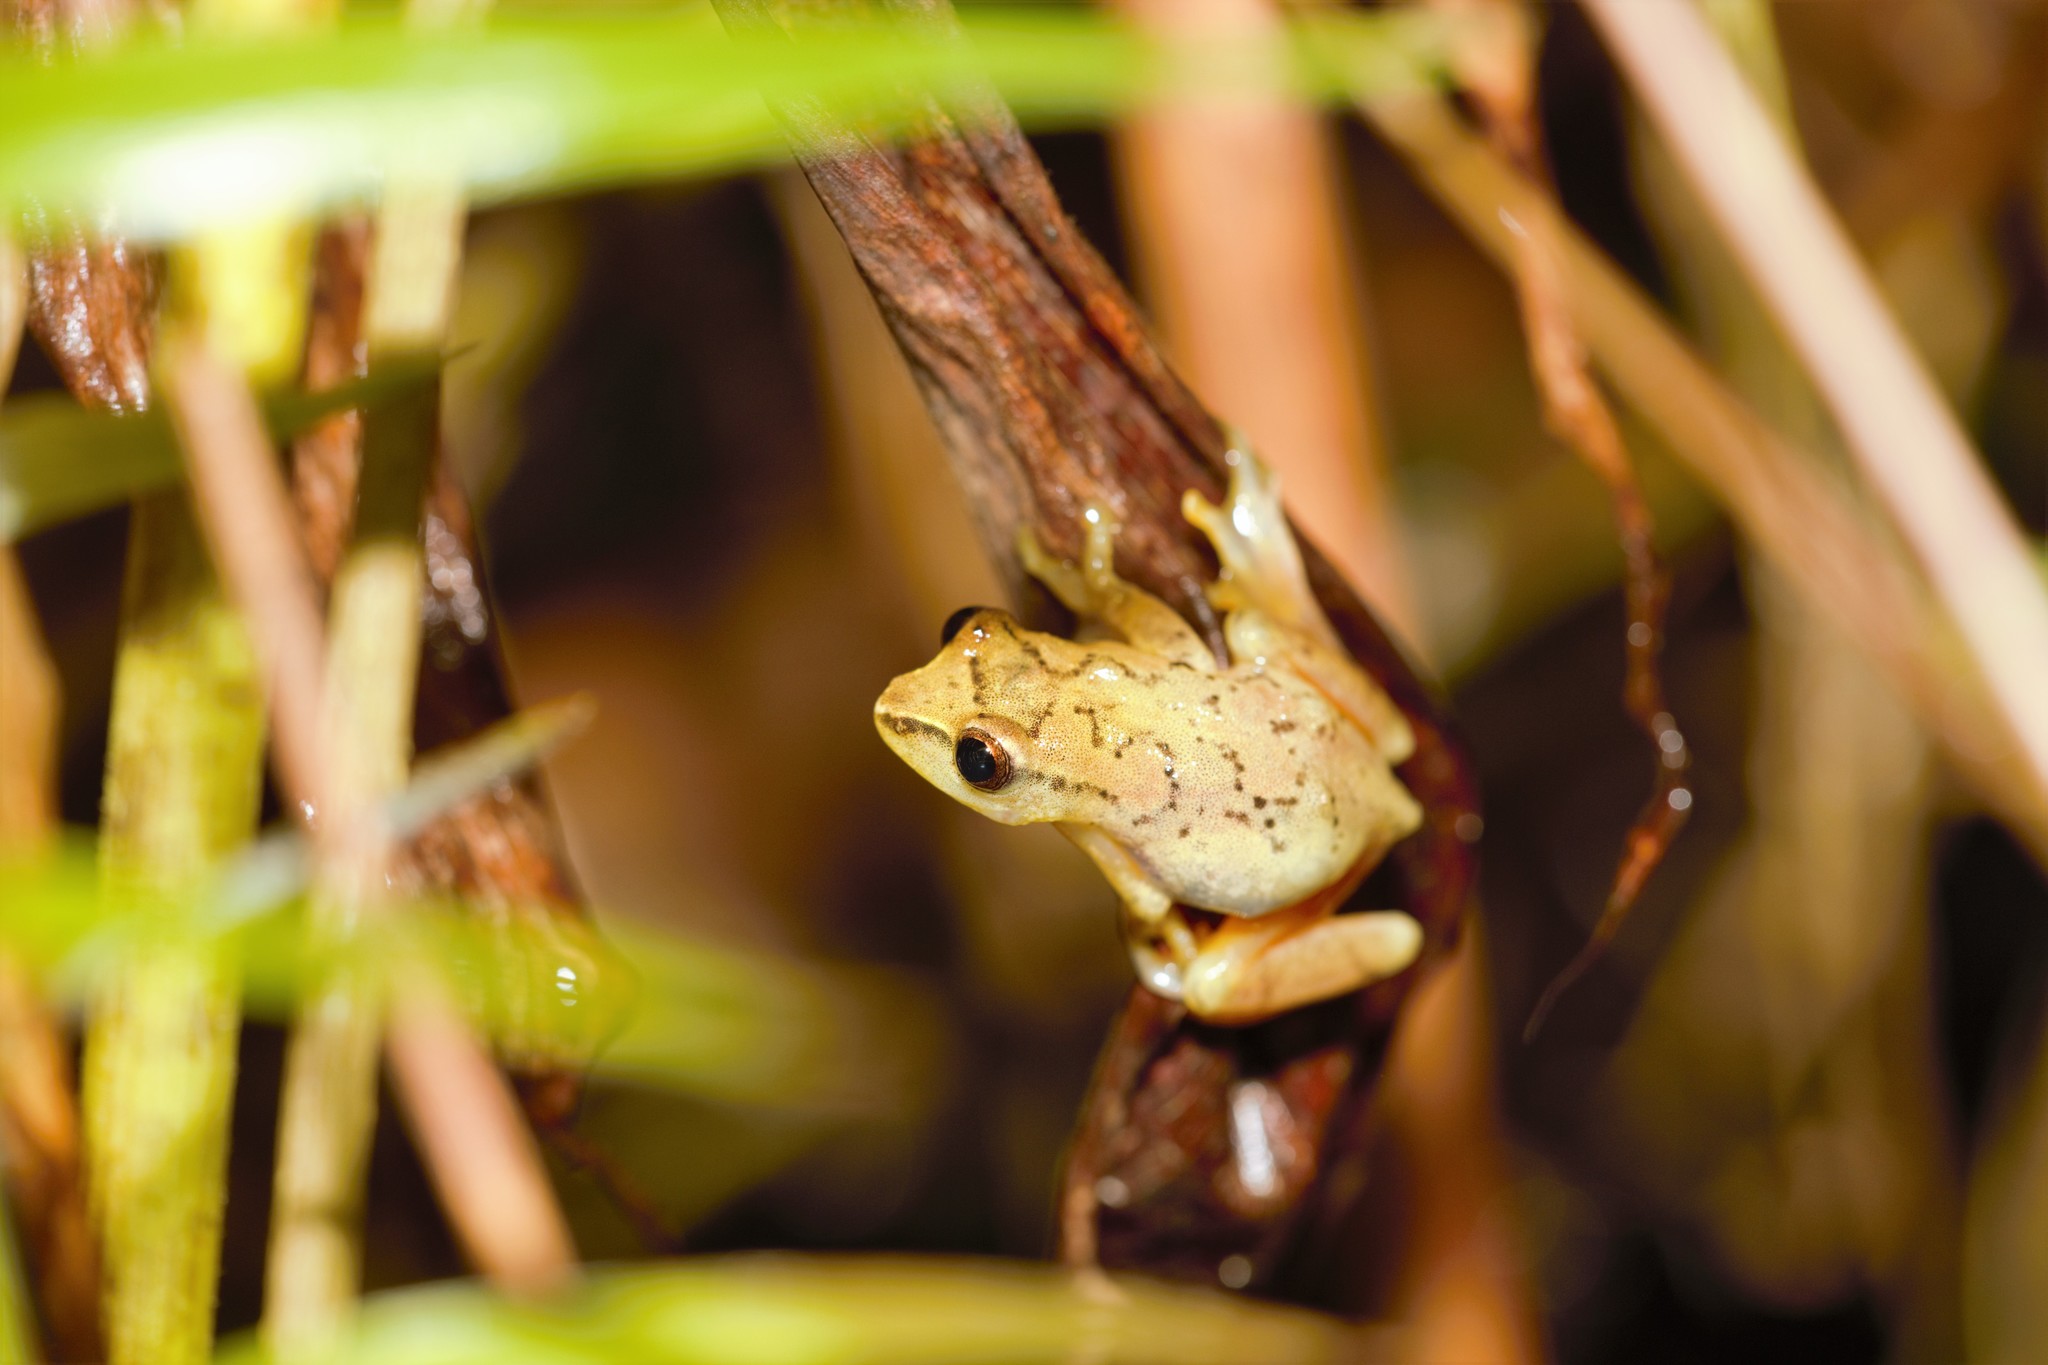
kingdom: Animalia
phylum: Chordata
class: Amphibia
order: Anura
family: Hyperoliidae
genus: Hyperolius
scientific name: Hyperolius concolor
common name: Variable reed frog
